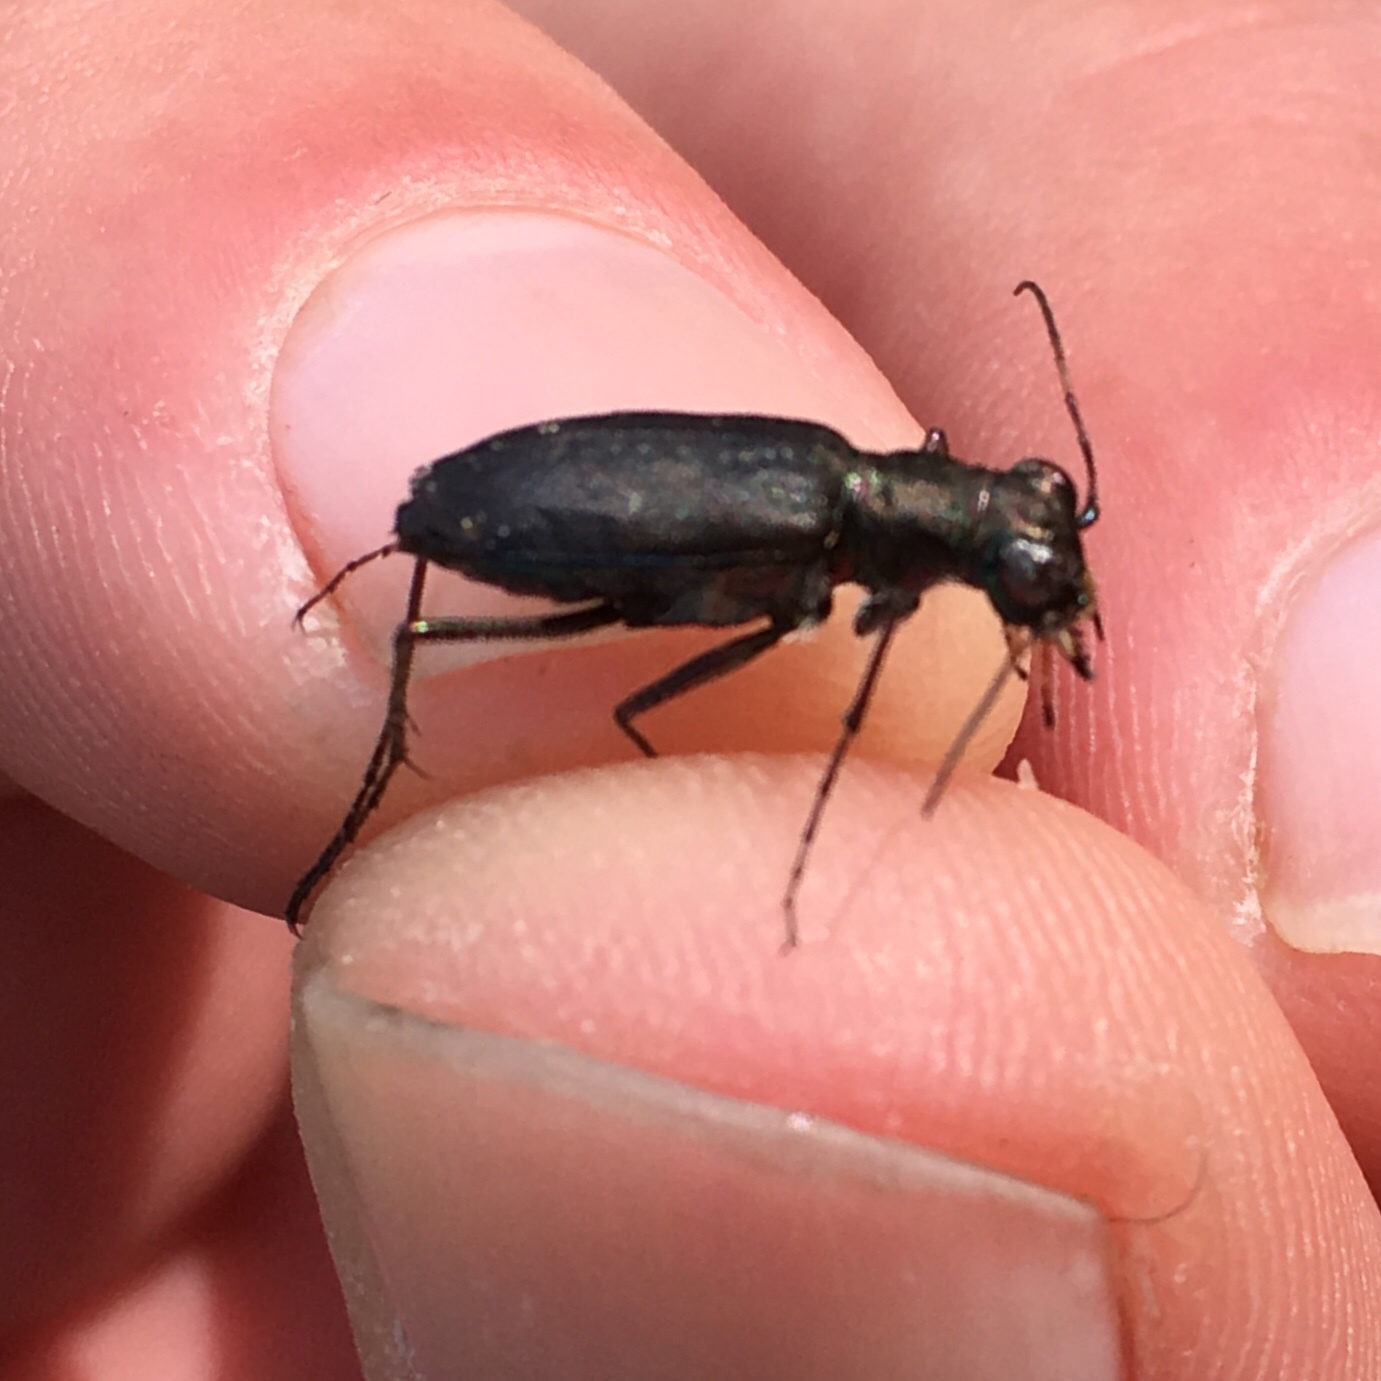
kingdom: Animalia
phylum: Arthropoda
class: Insecta
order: Coleoptera
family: Carabidae
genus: Cicindela
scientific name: Cicindela punctulata
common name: Punctured tiger beetle
